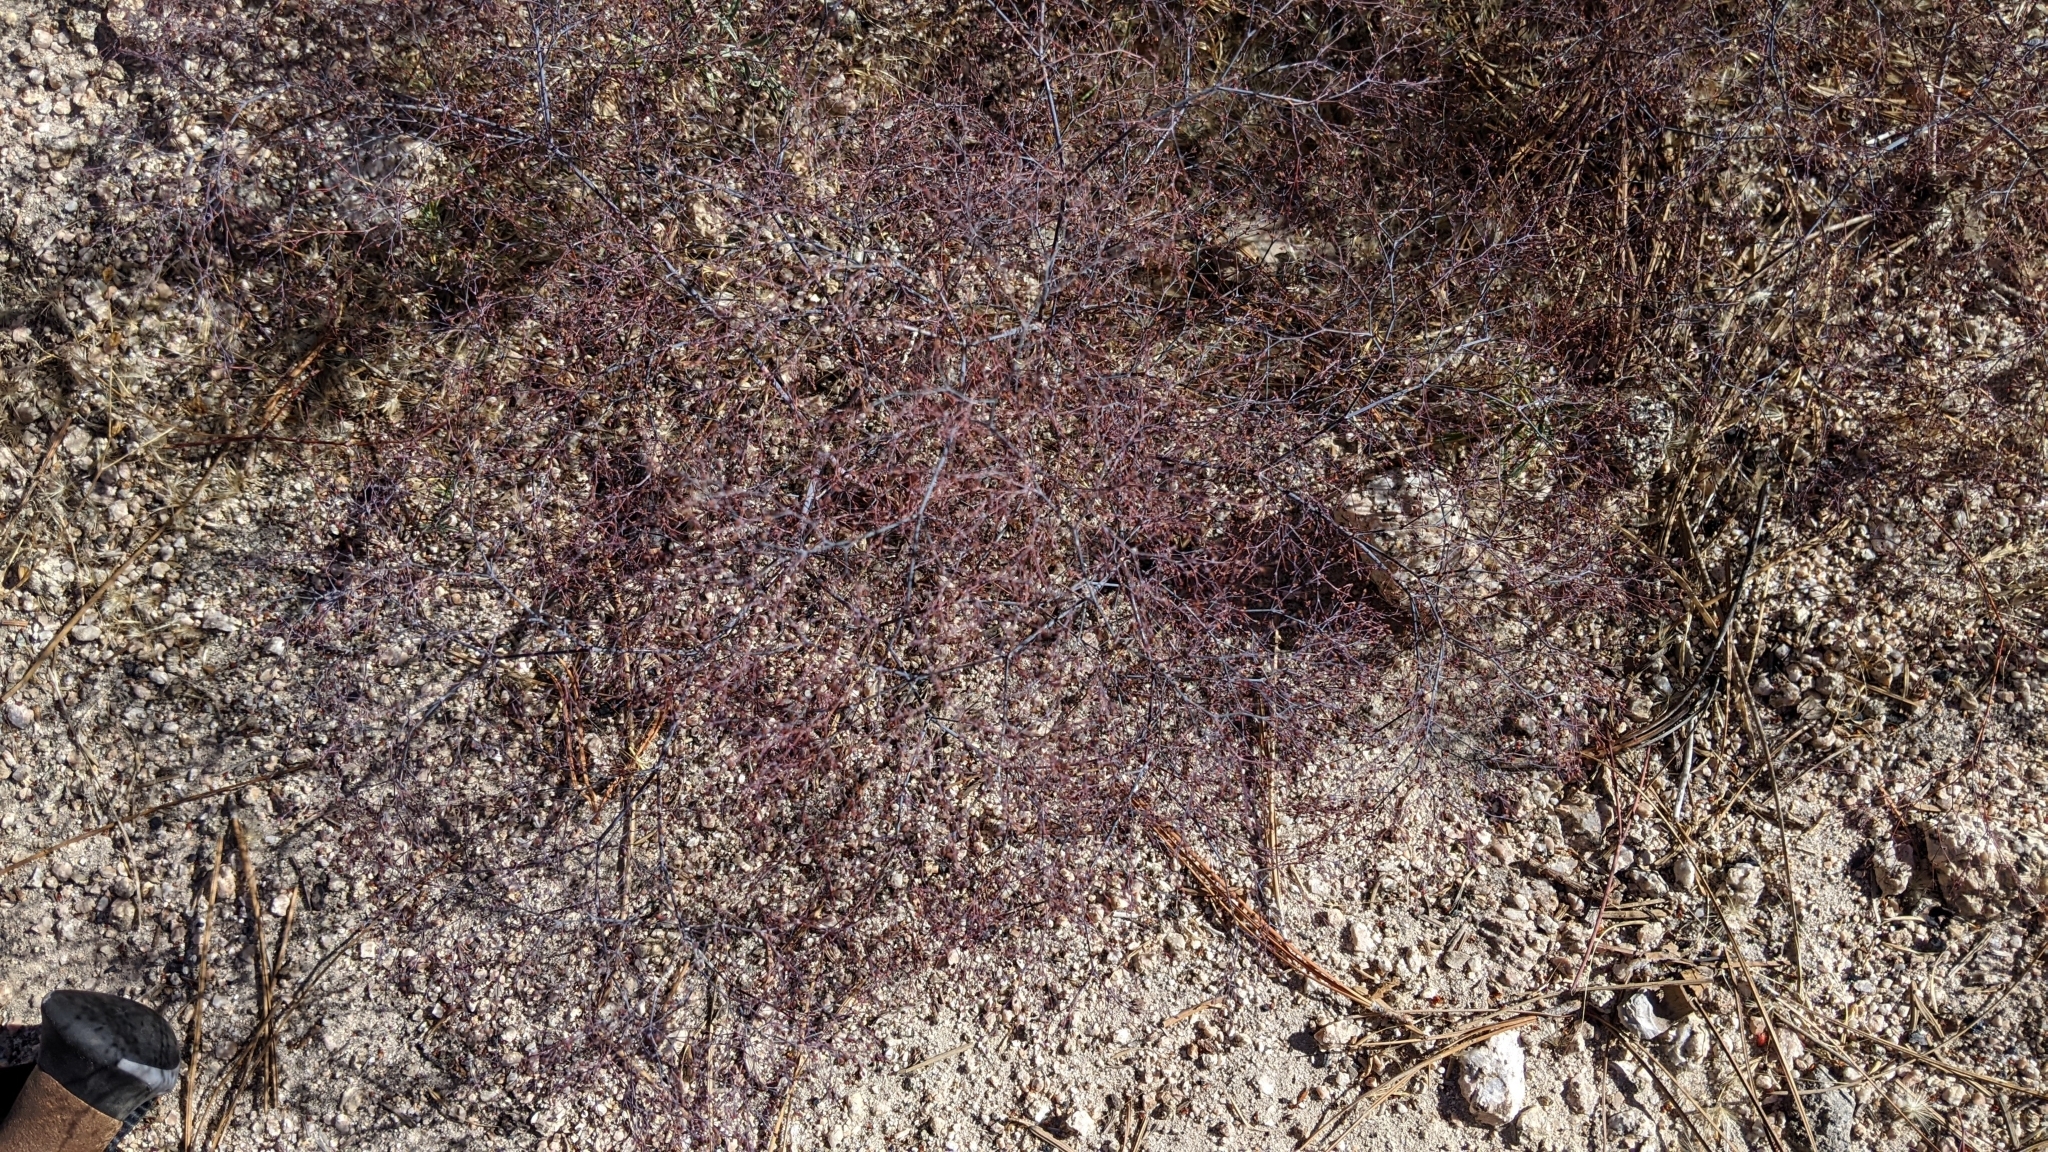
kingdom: Plantae
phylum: Tracheophyta
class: Magnoliopsida
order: Caryophyllales
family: Polygonaceae
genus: Eriogonum
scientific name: Eriogonum parishii
